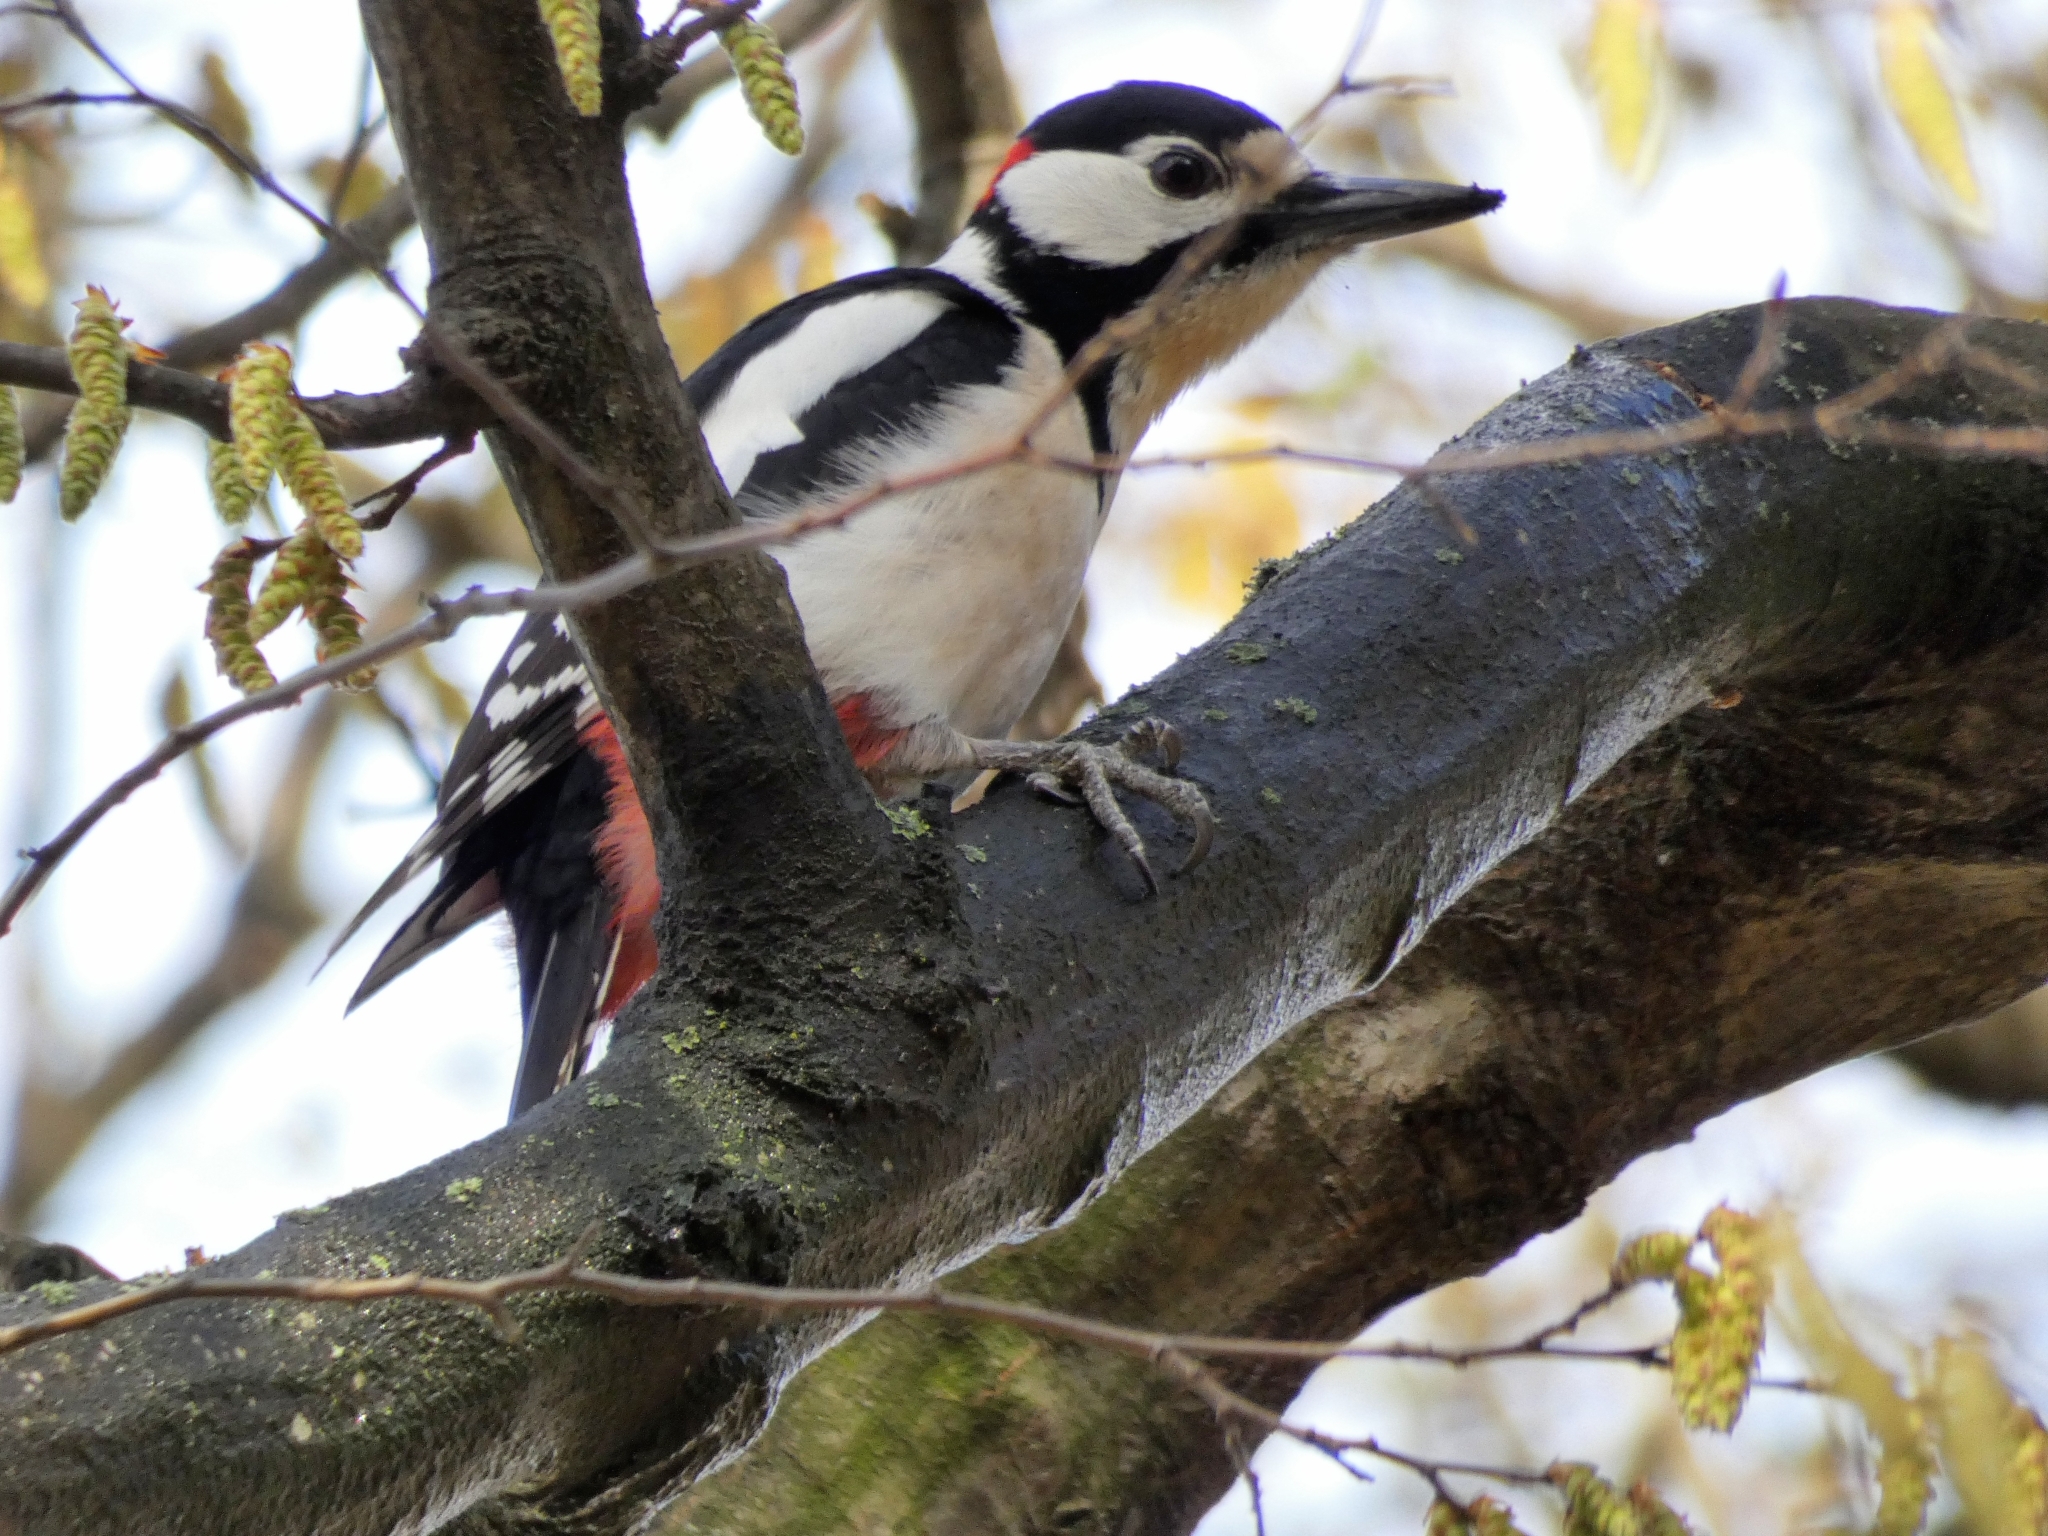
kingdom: Animalia
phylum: Chordata
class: Aves
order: Piciformes
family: Picidae
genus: Dendrocopos
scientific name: Dendrocopos major
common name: Great spotted woodpecker
